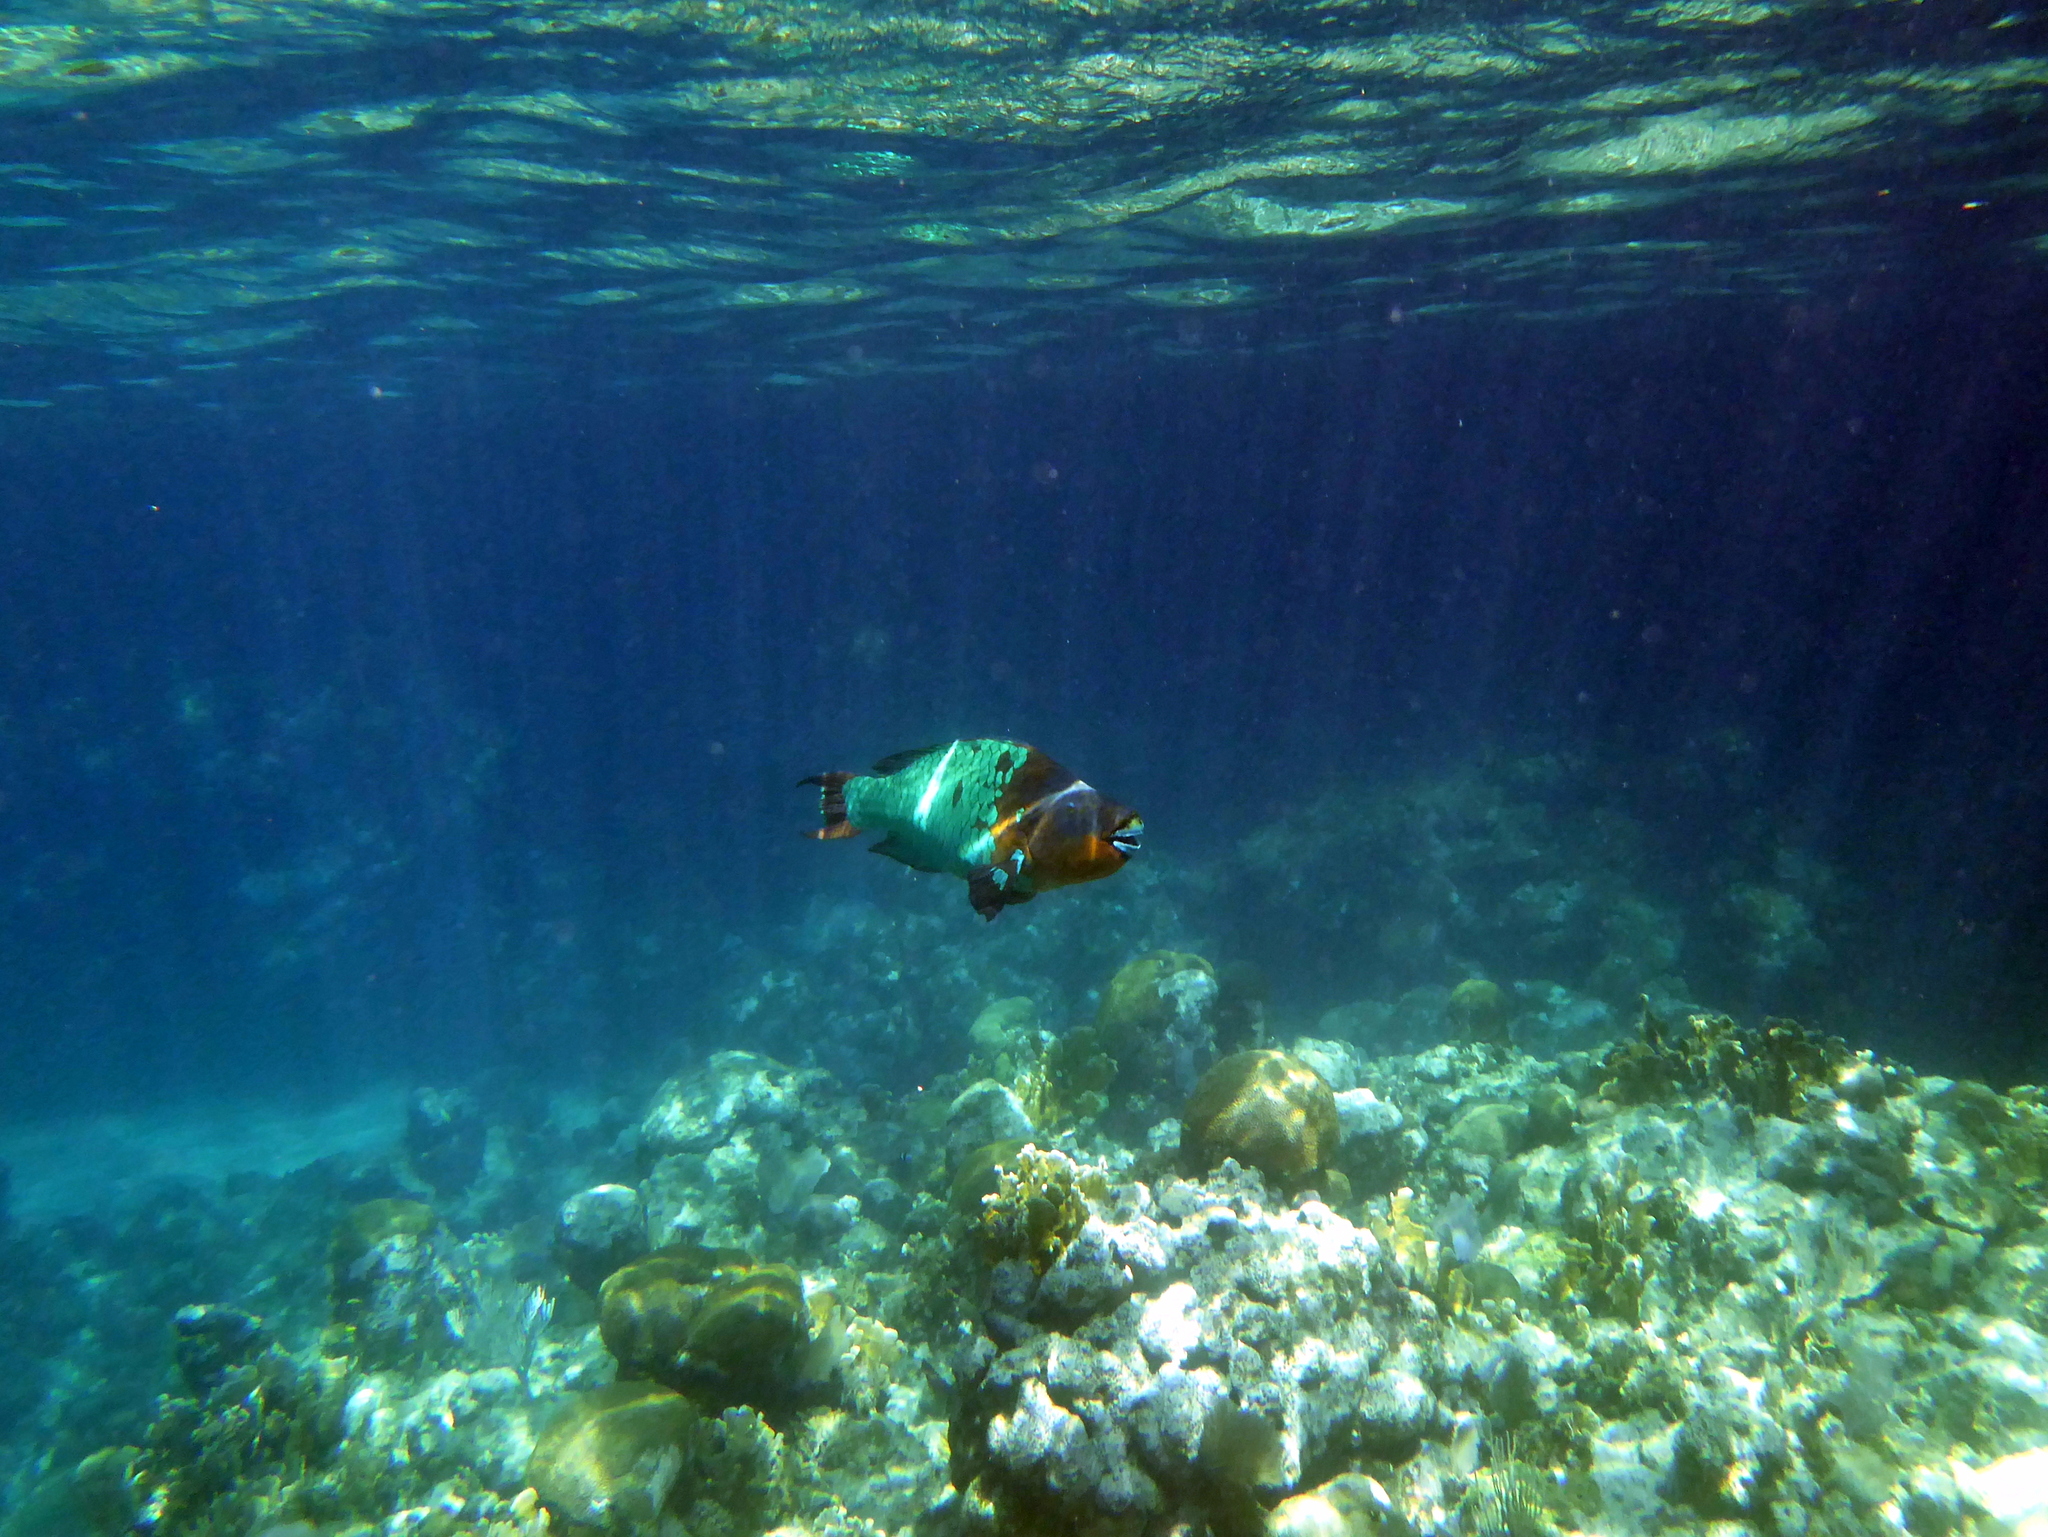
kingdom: Animalia
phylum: Chordata
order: Perciformes
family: Scaridae
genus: Scarus
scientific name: Scarus guacamaia
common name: Rainbow parrotfish
